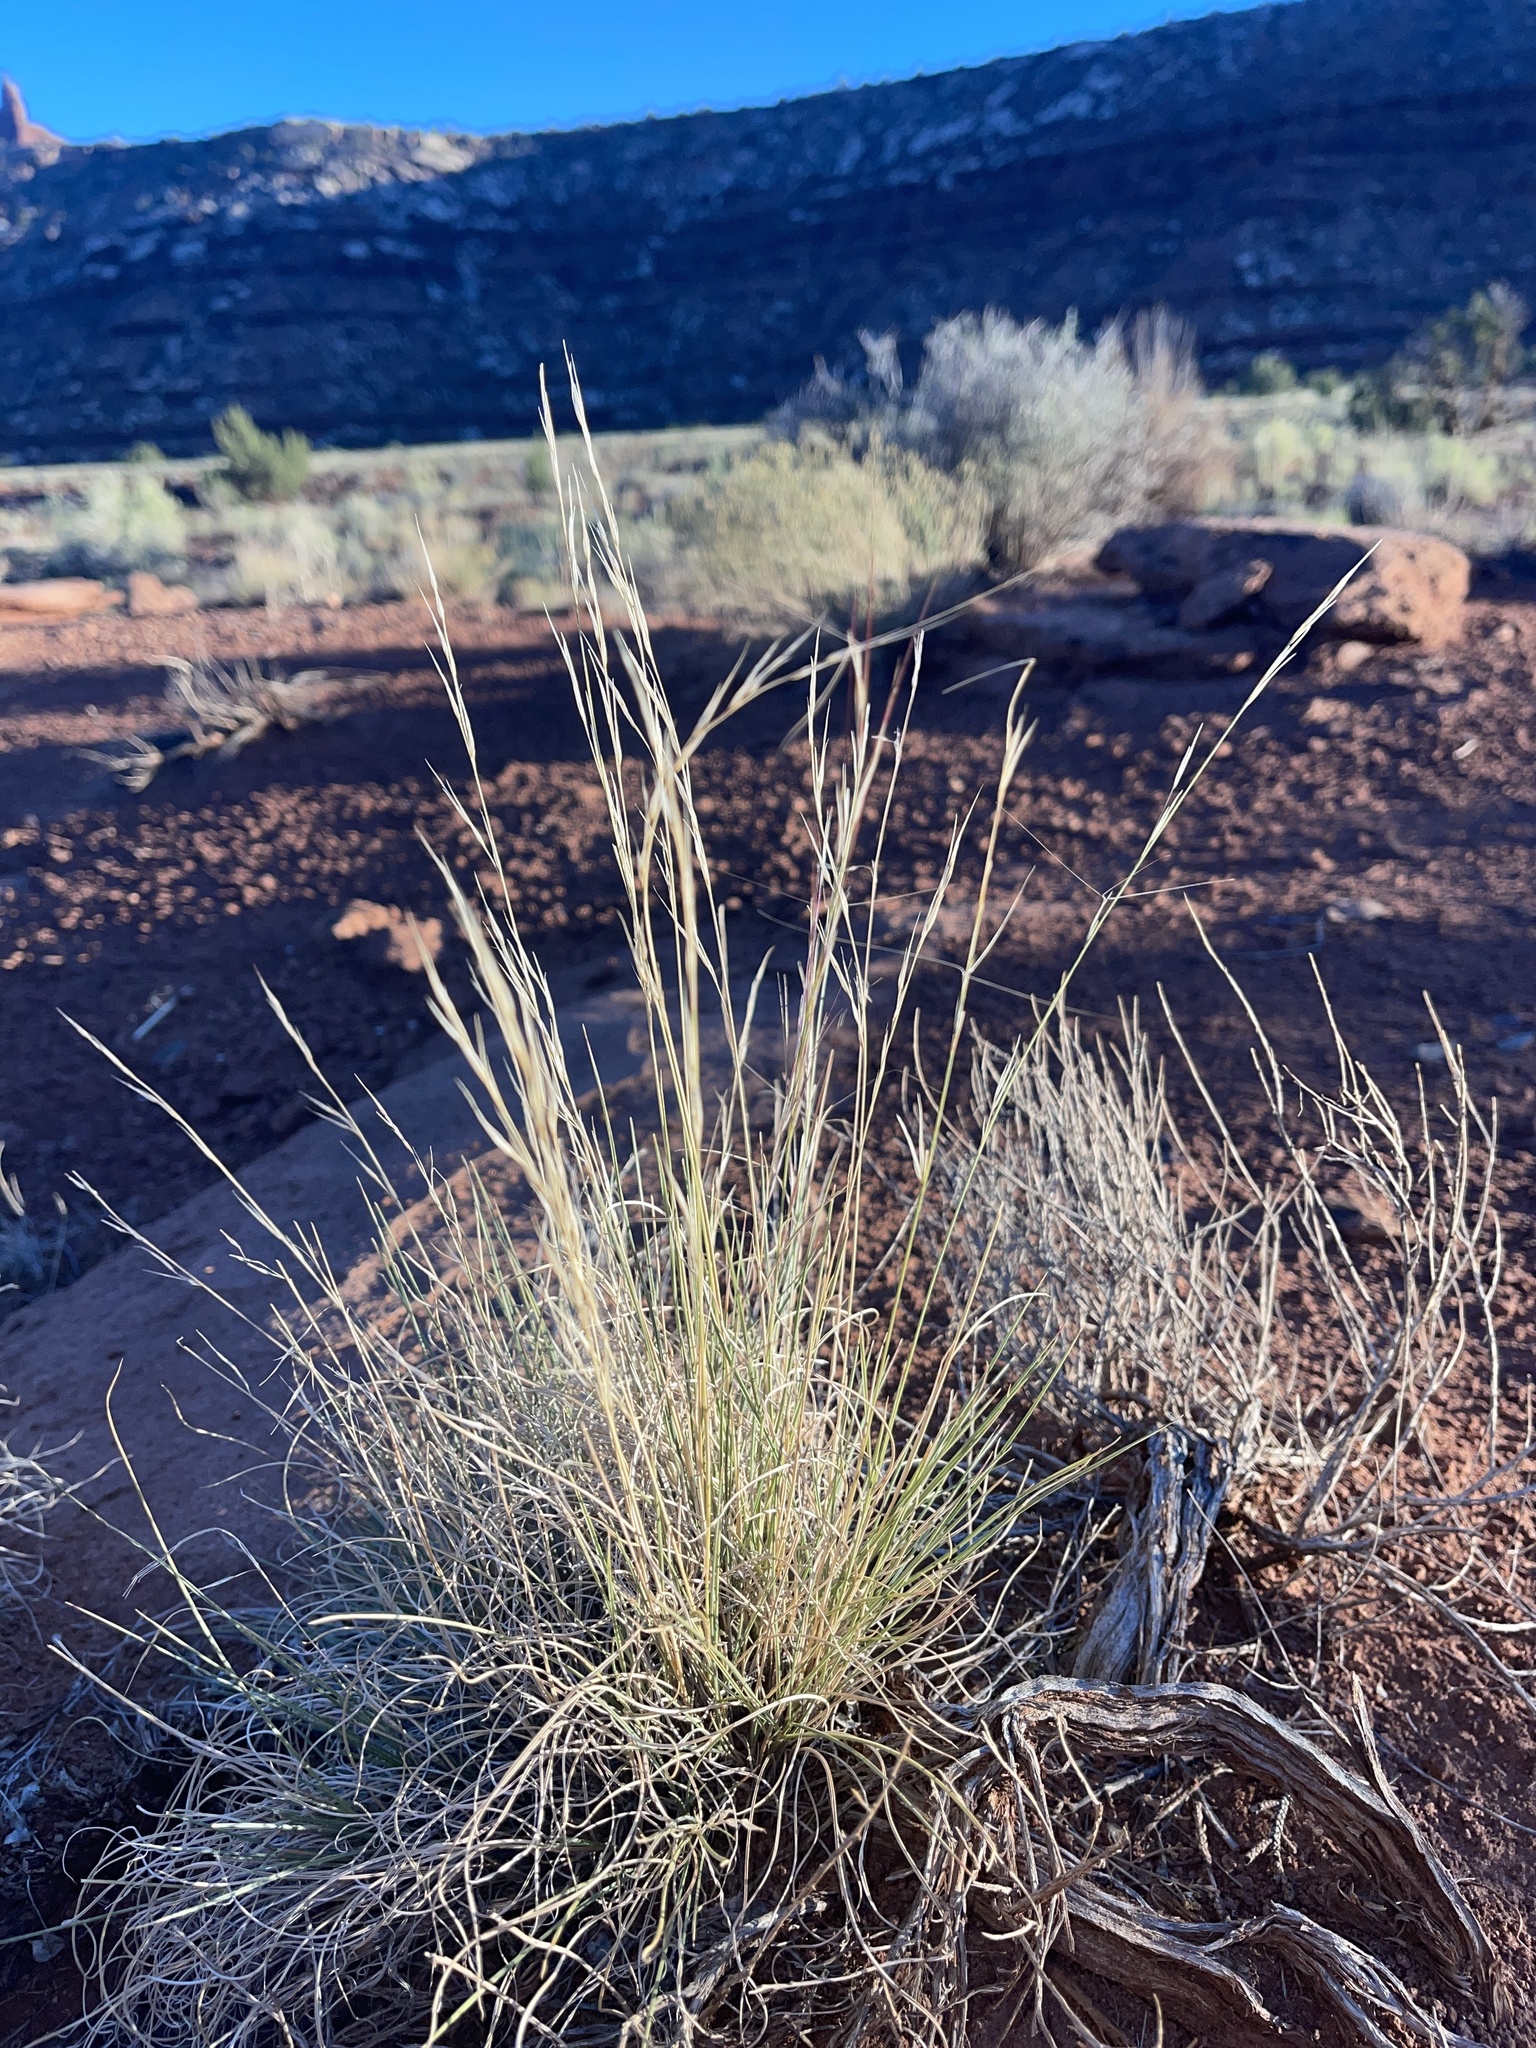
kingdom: Plantae
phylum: Tracheophyta
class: Liliopsida
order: Poales
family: Poaceae
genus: Aristida
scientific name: Aristida purpurea
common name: Purple threeawn
